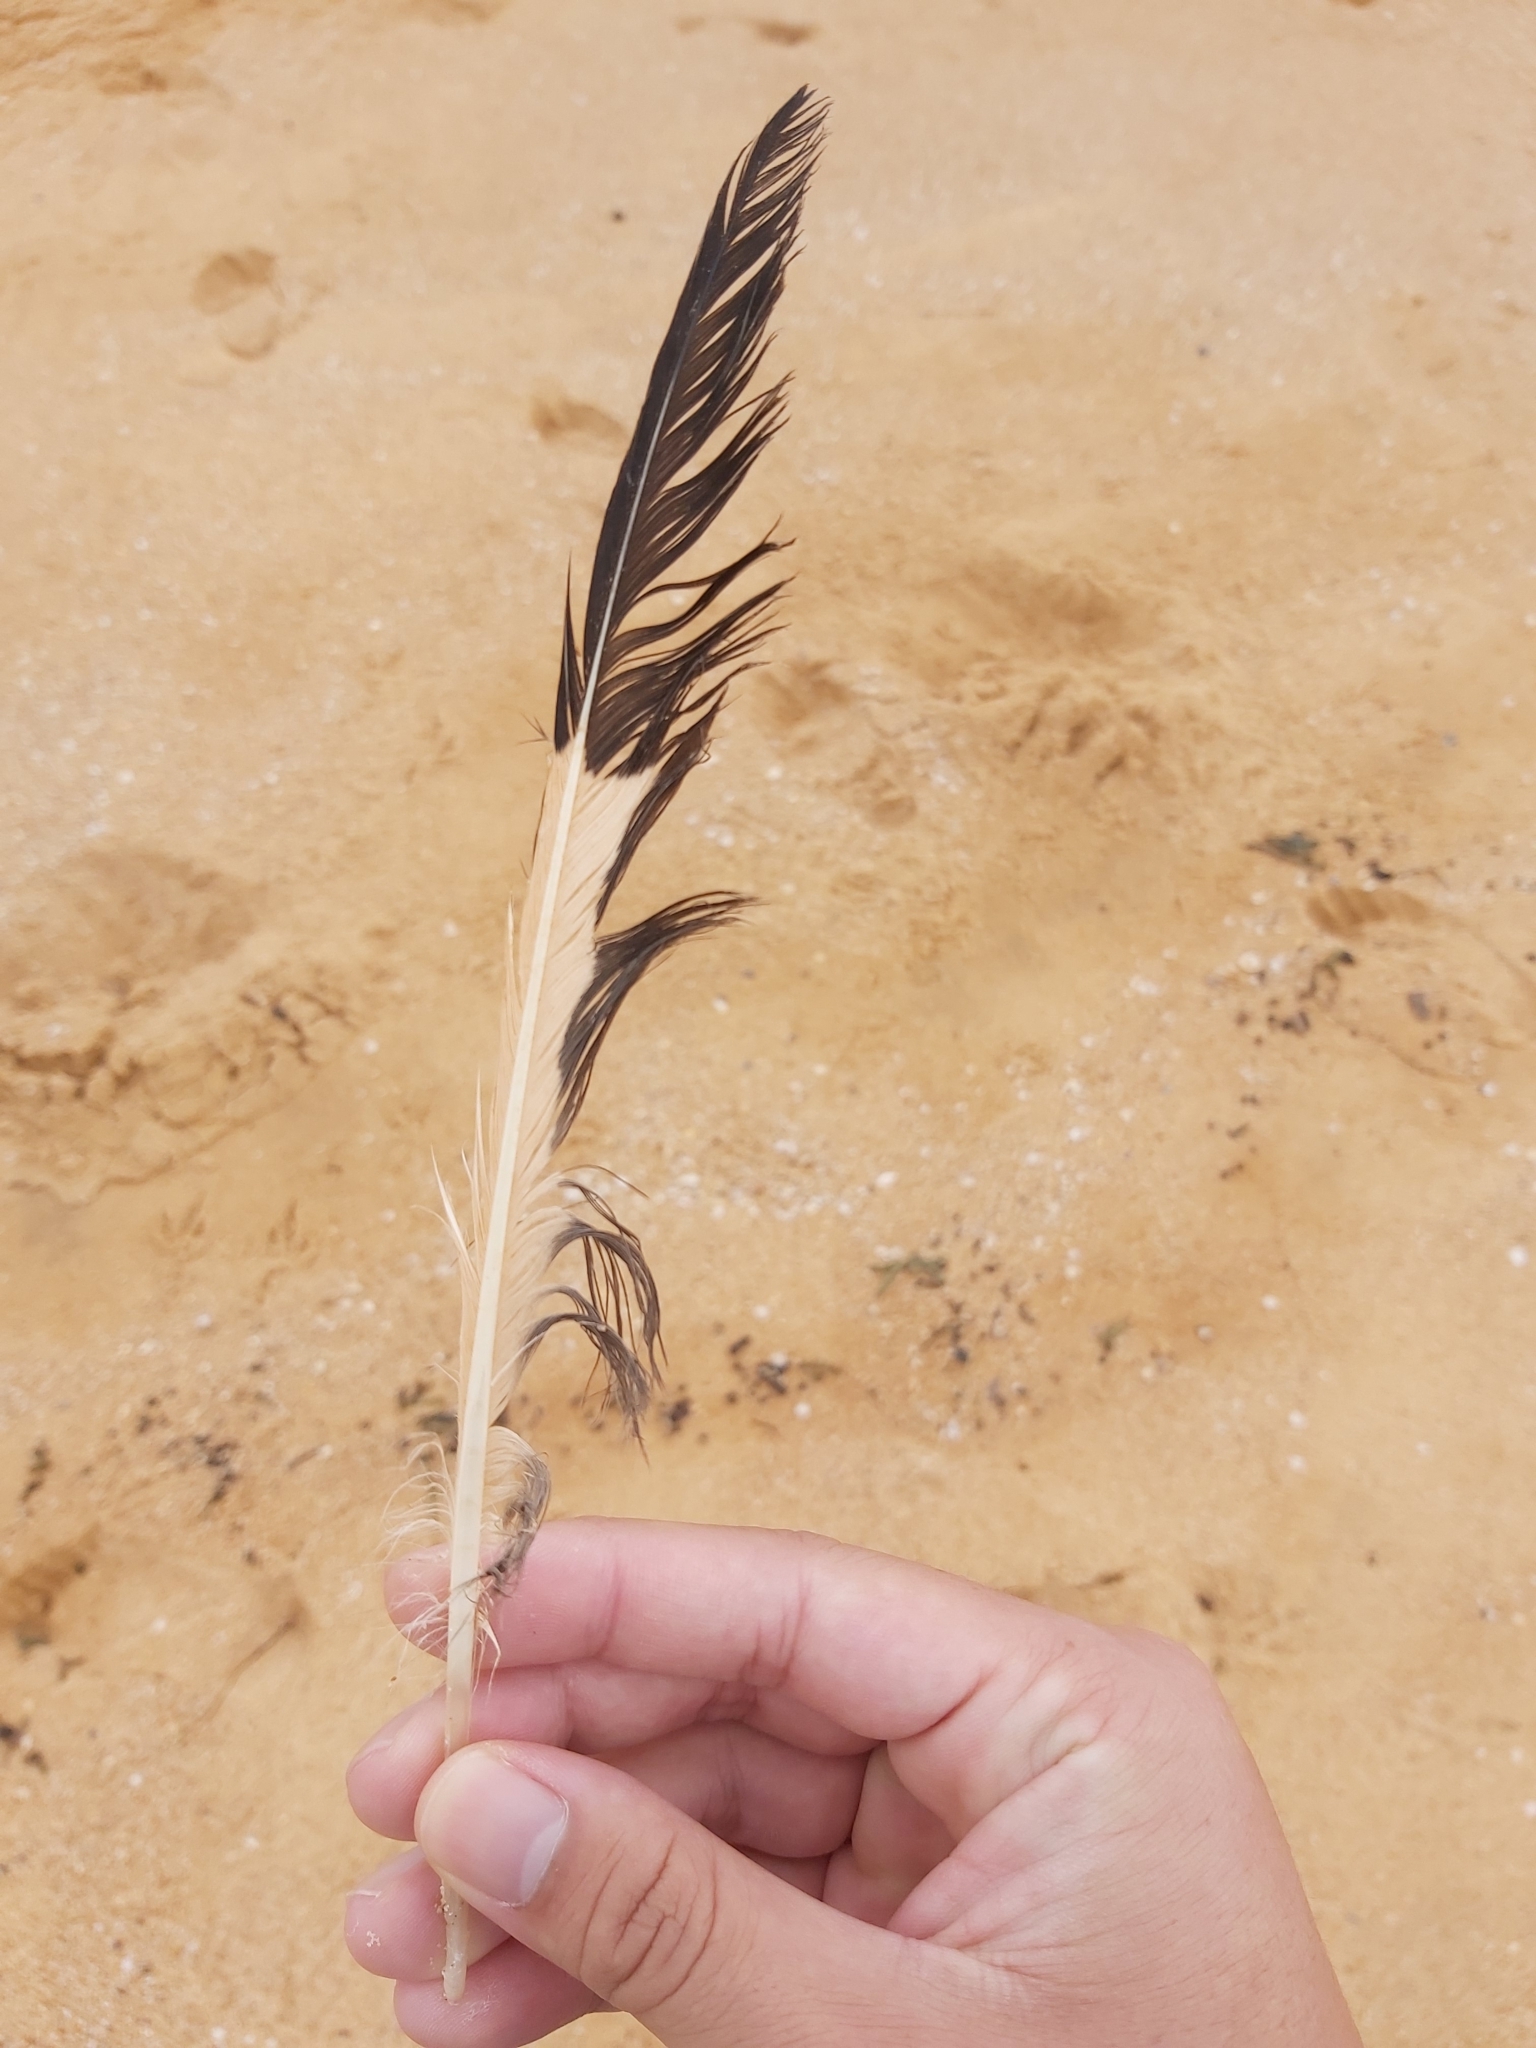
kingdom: Animalia
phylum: Chordata
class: Aves
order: Charadriiformes
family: Laridae
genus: Chroicocephalus
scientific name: Chroicocephalus novaehollandiae
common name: Silver gull
